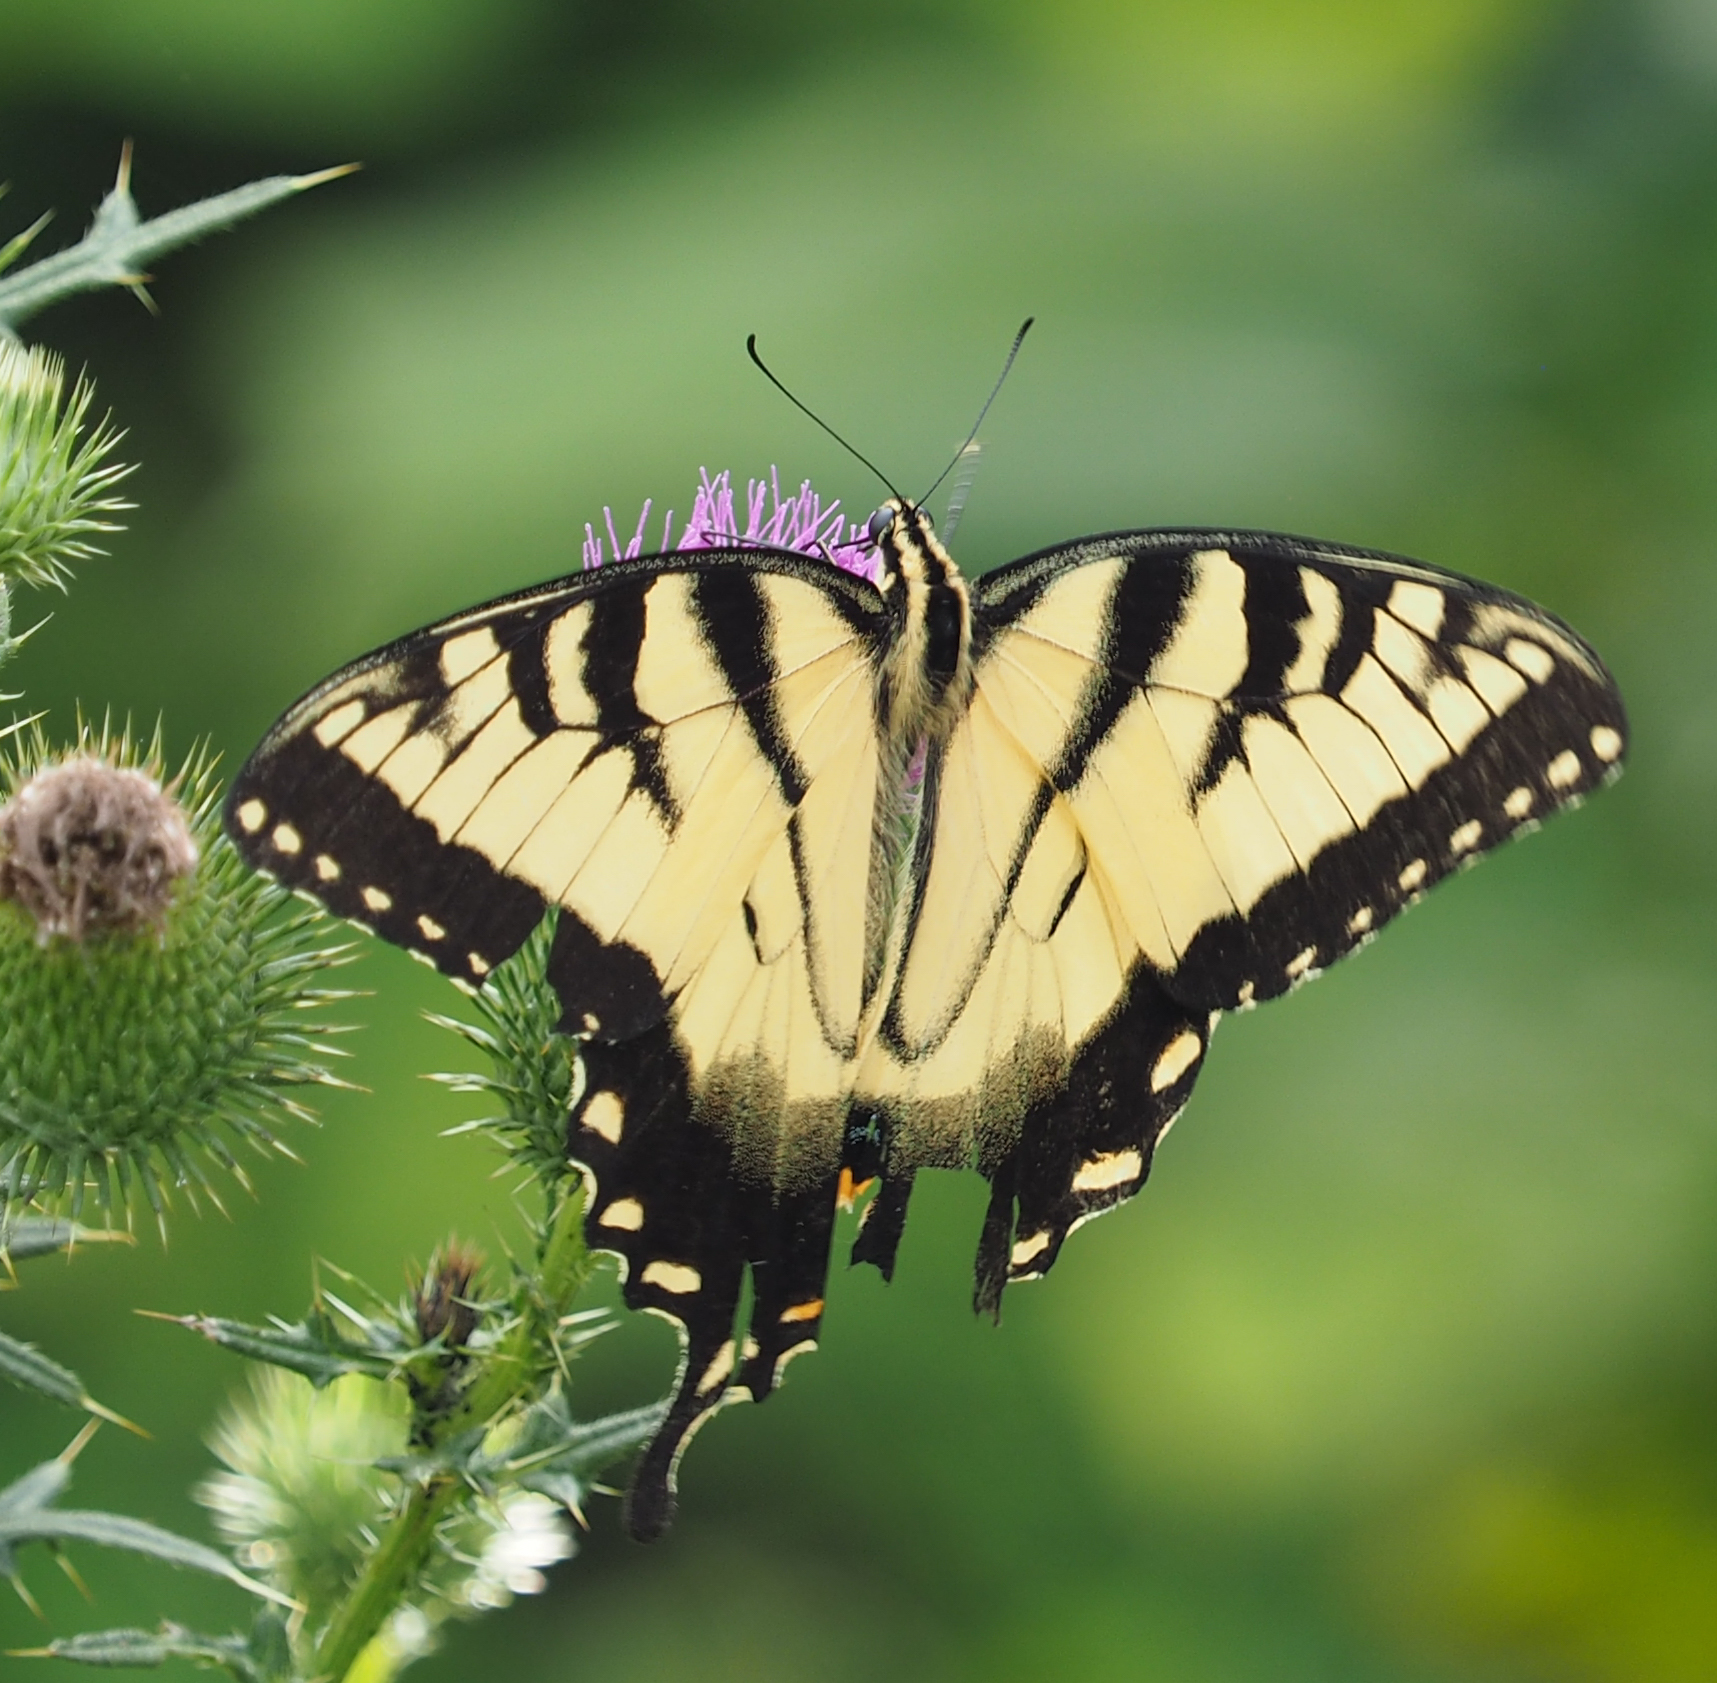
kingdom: Animalia
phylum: Arthropoda
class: Insecta
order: Lepidoptera
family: Papilionidae
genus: Papilio
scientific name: Papilio glaucus
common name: Tiger swallowtail
